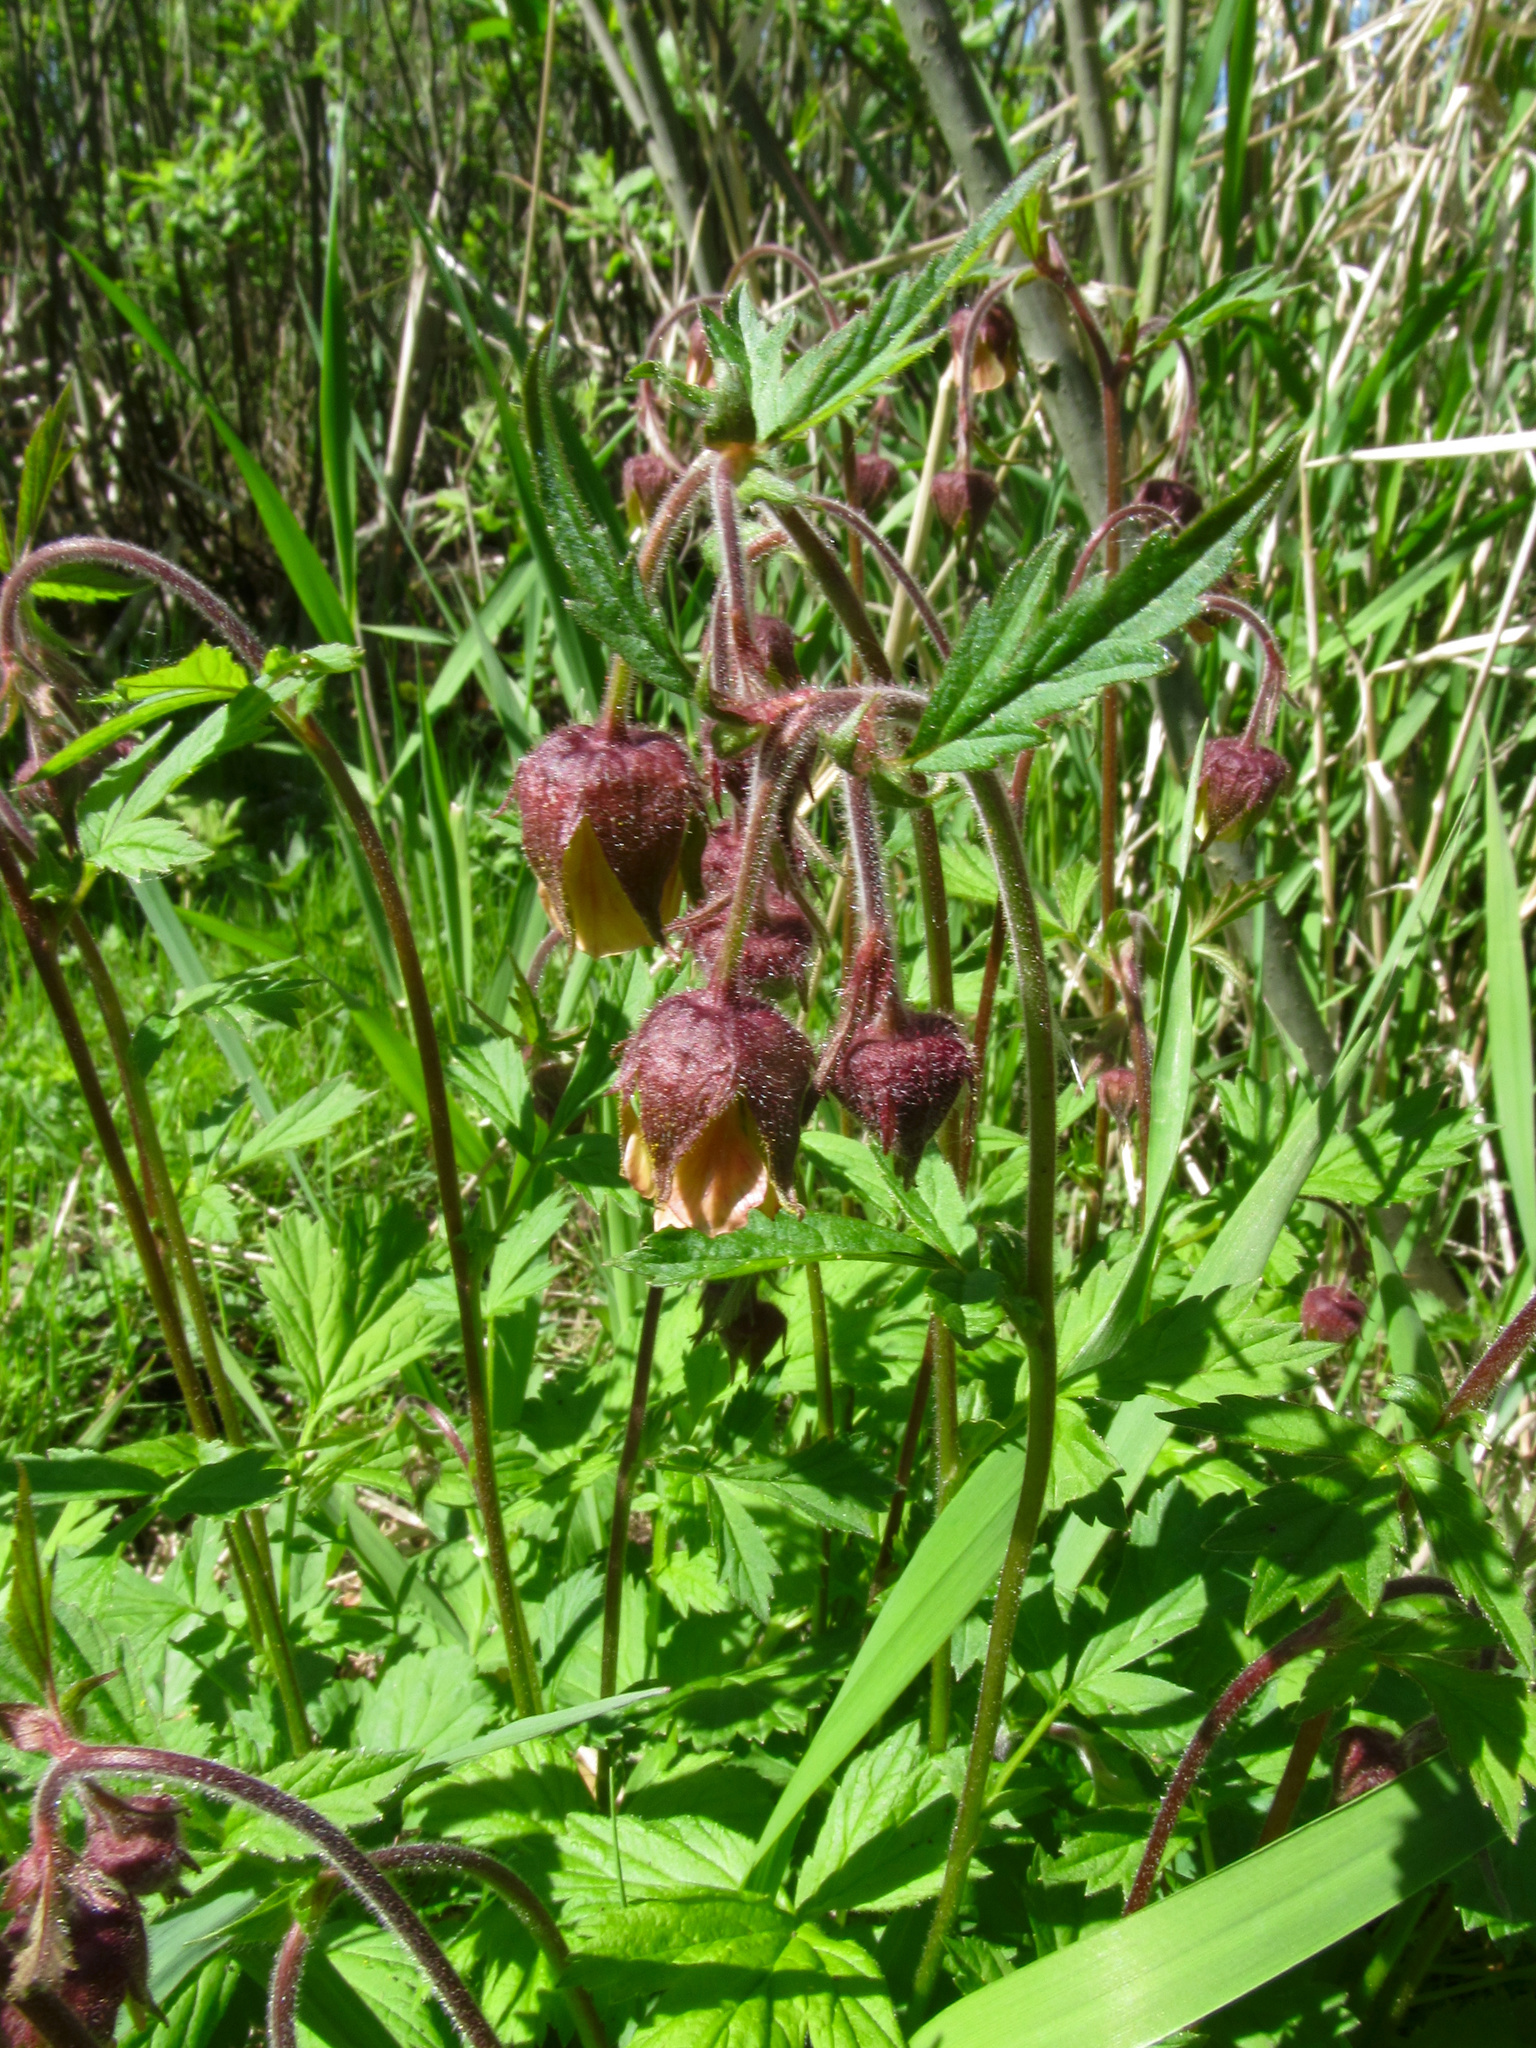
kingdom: Plantae
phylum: Tracheophyta
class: Magnoliopsida
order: Rosales
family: Rosaceae
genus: Geum
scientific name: Geum rivale
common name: Water avens
